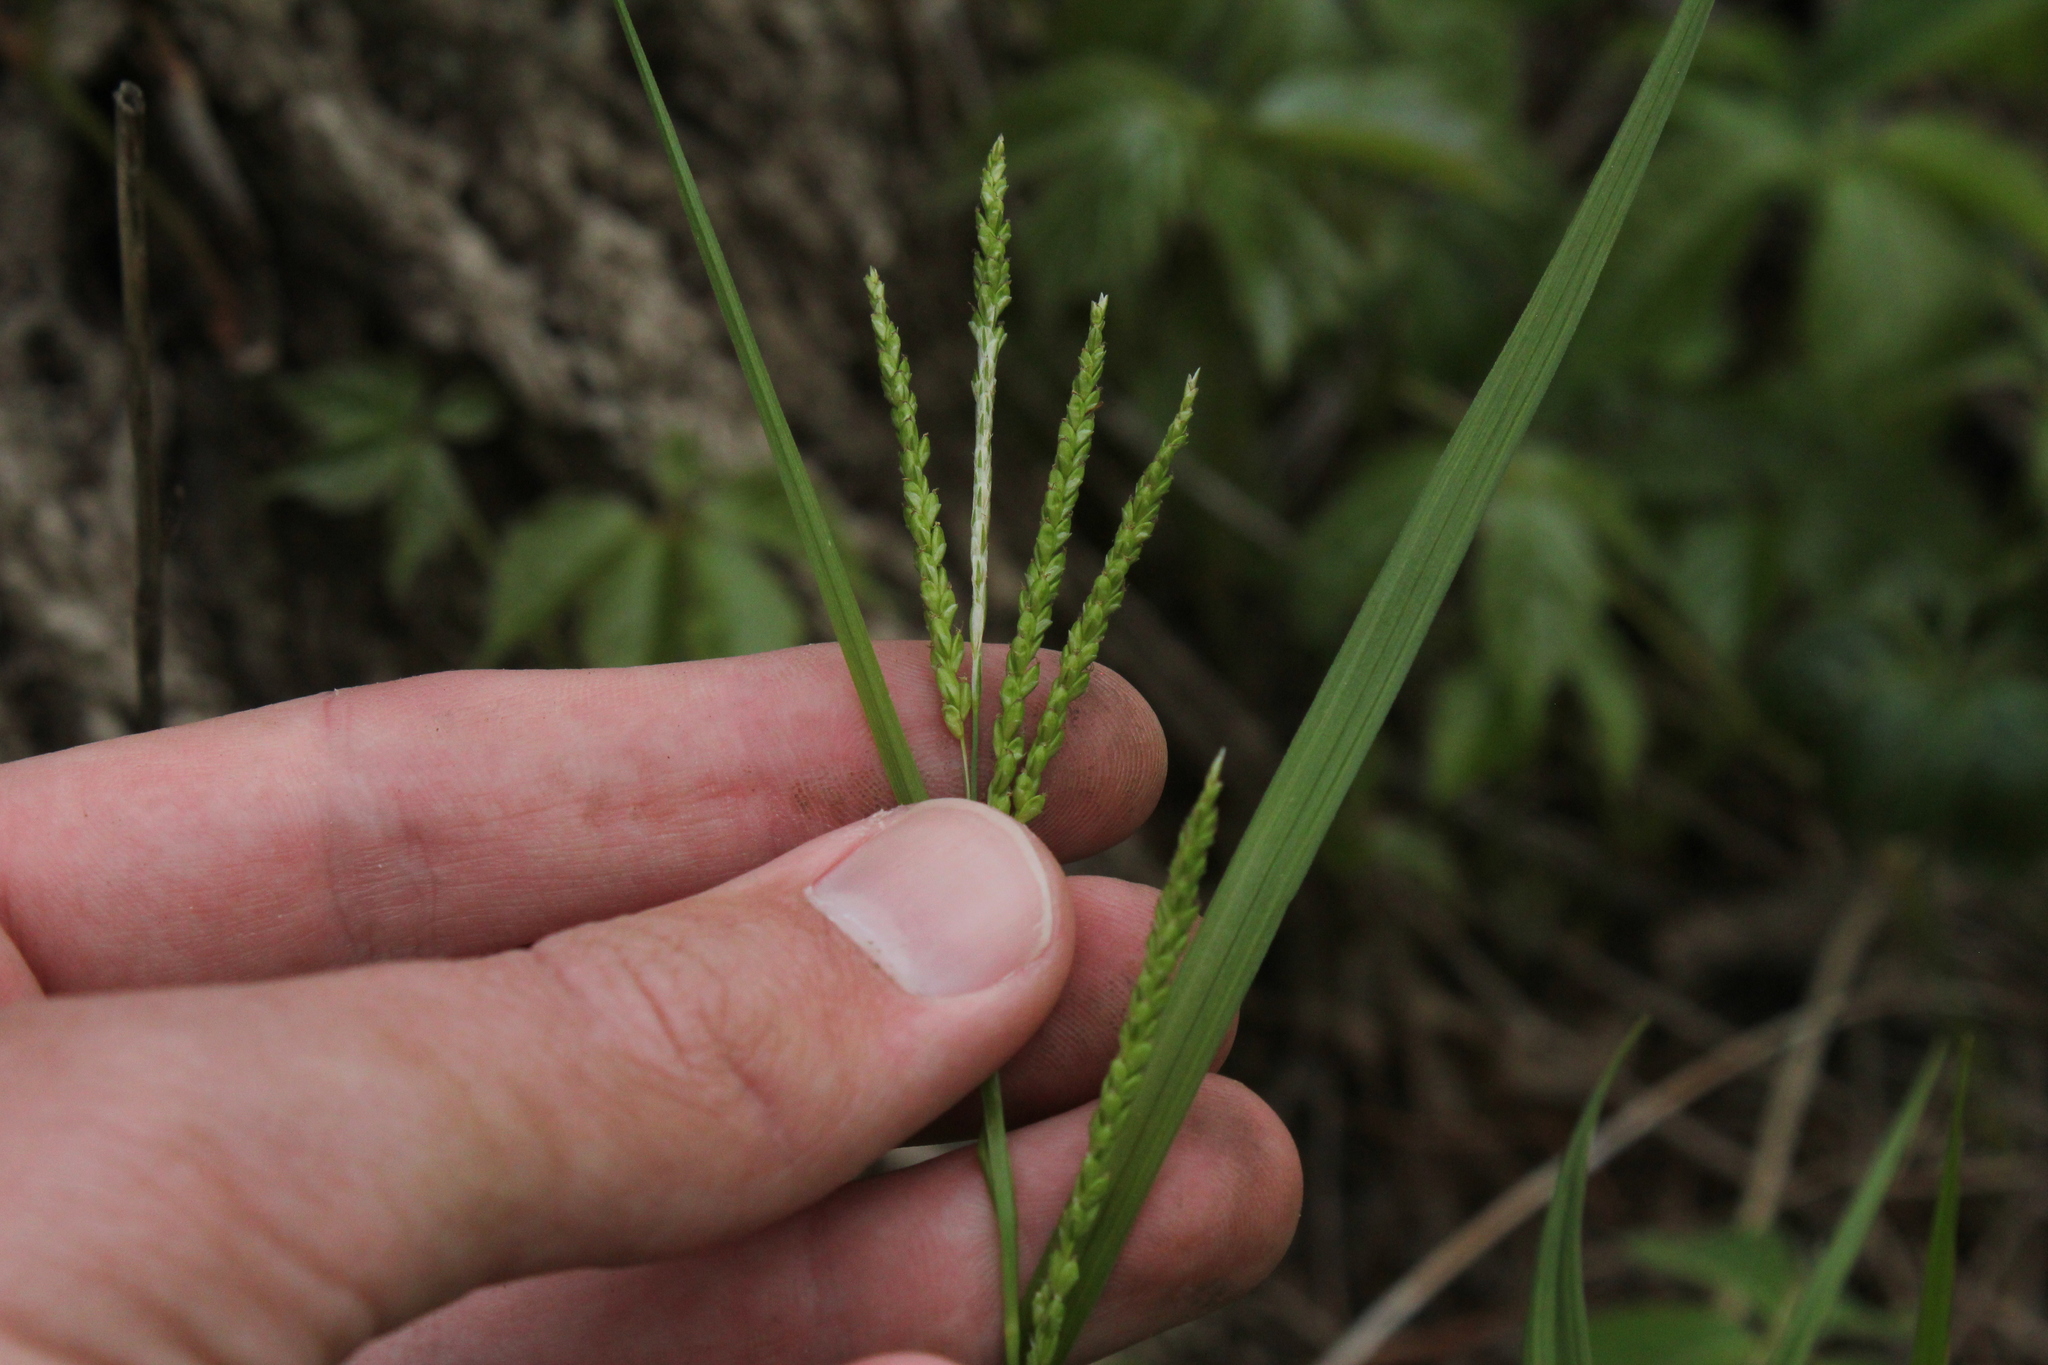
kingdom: Plantae
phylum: Tracheophyta
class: Liliopsida
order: Poales
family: Cyperaceae
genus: Carex
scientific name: Carex gracillima
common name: Graceful sedge
